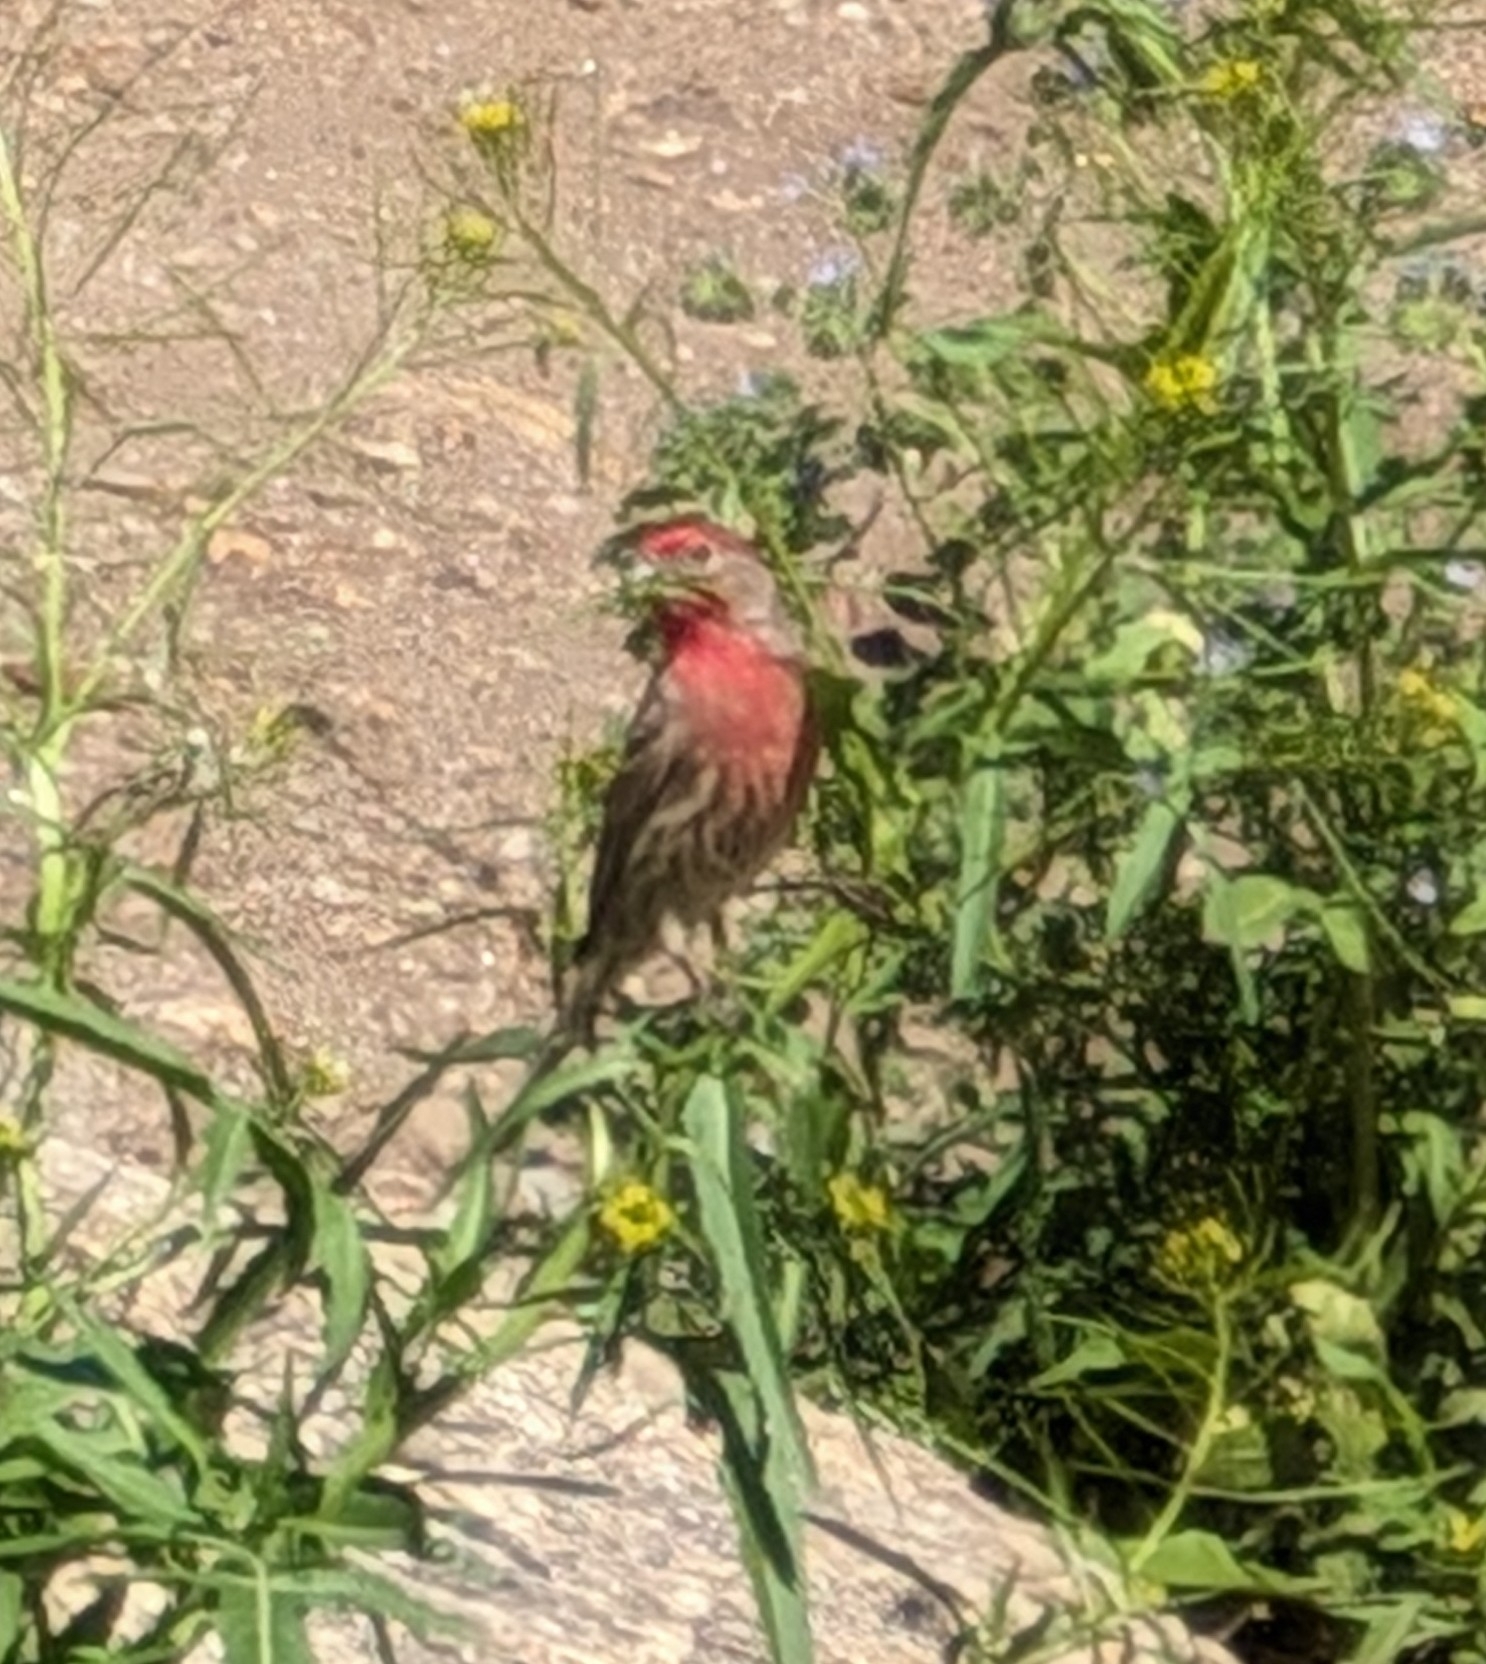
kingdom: Animalia
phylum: Chordata
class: Aves
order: Passeriformes
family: Fringillidae
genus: Haemorhous
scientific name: Haemorhous mexicanus
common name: House finch
